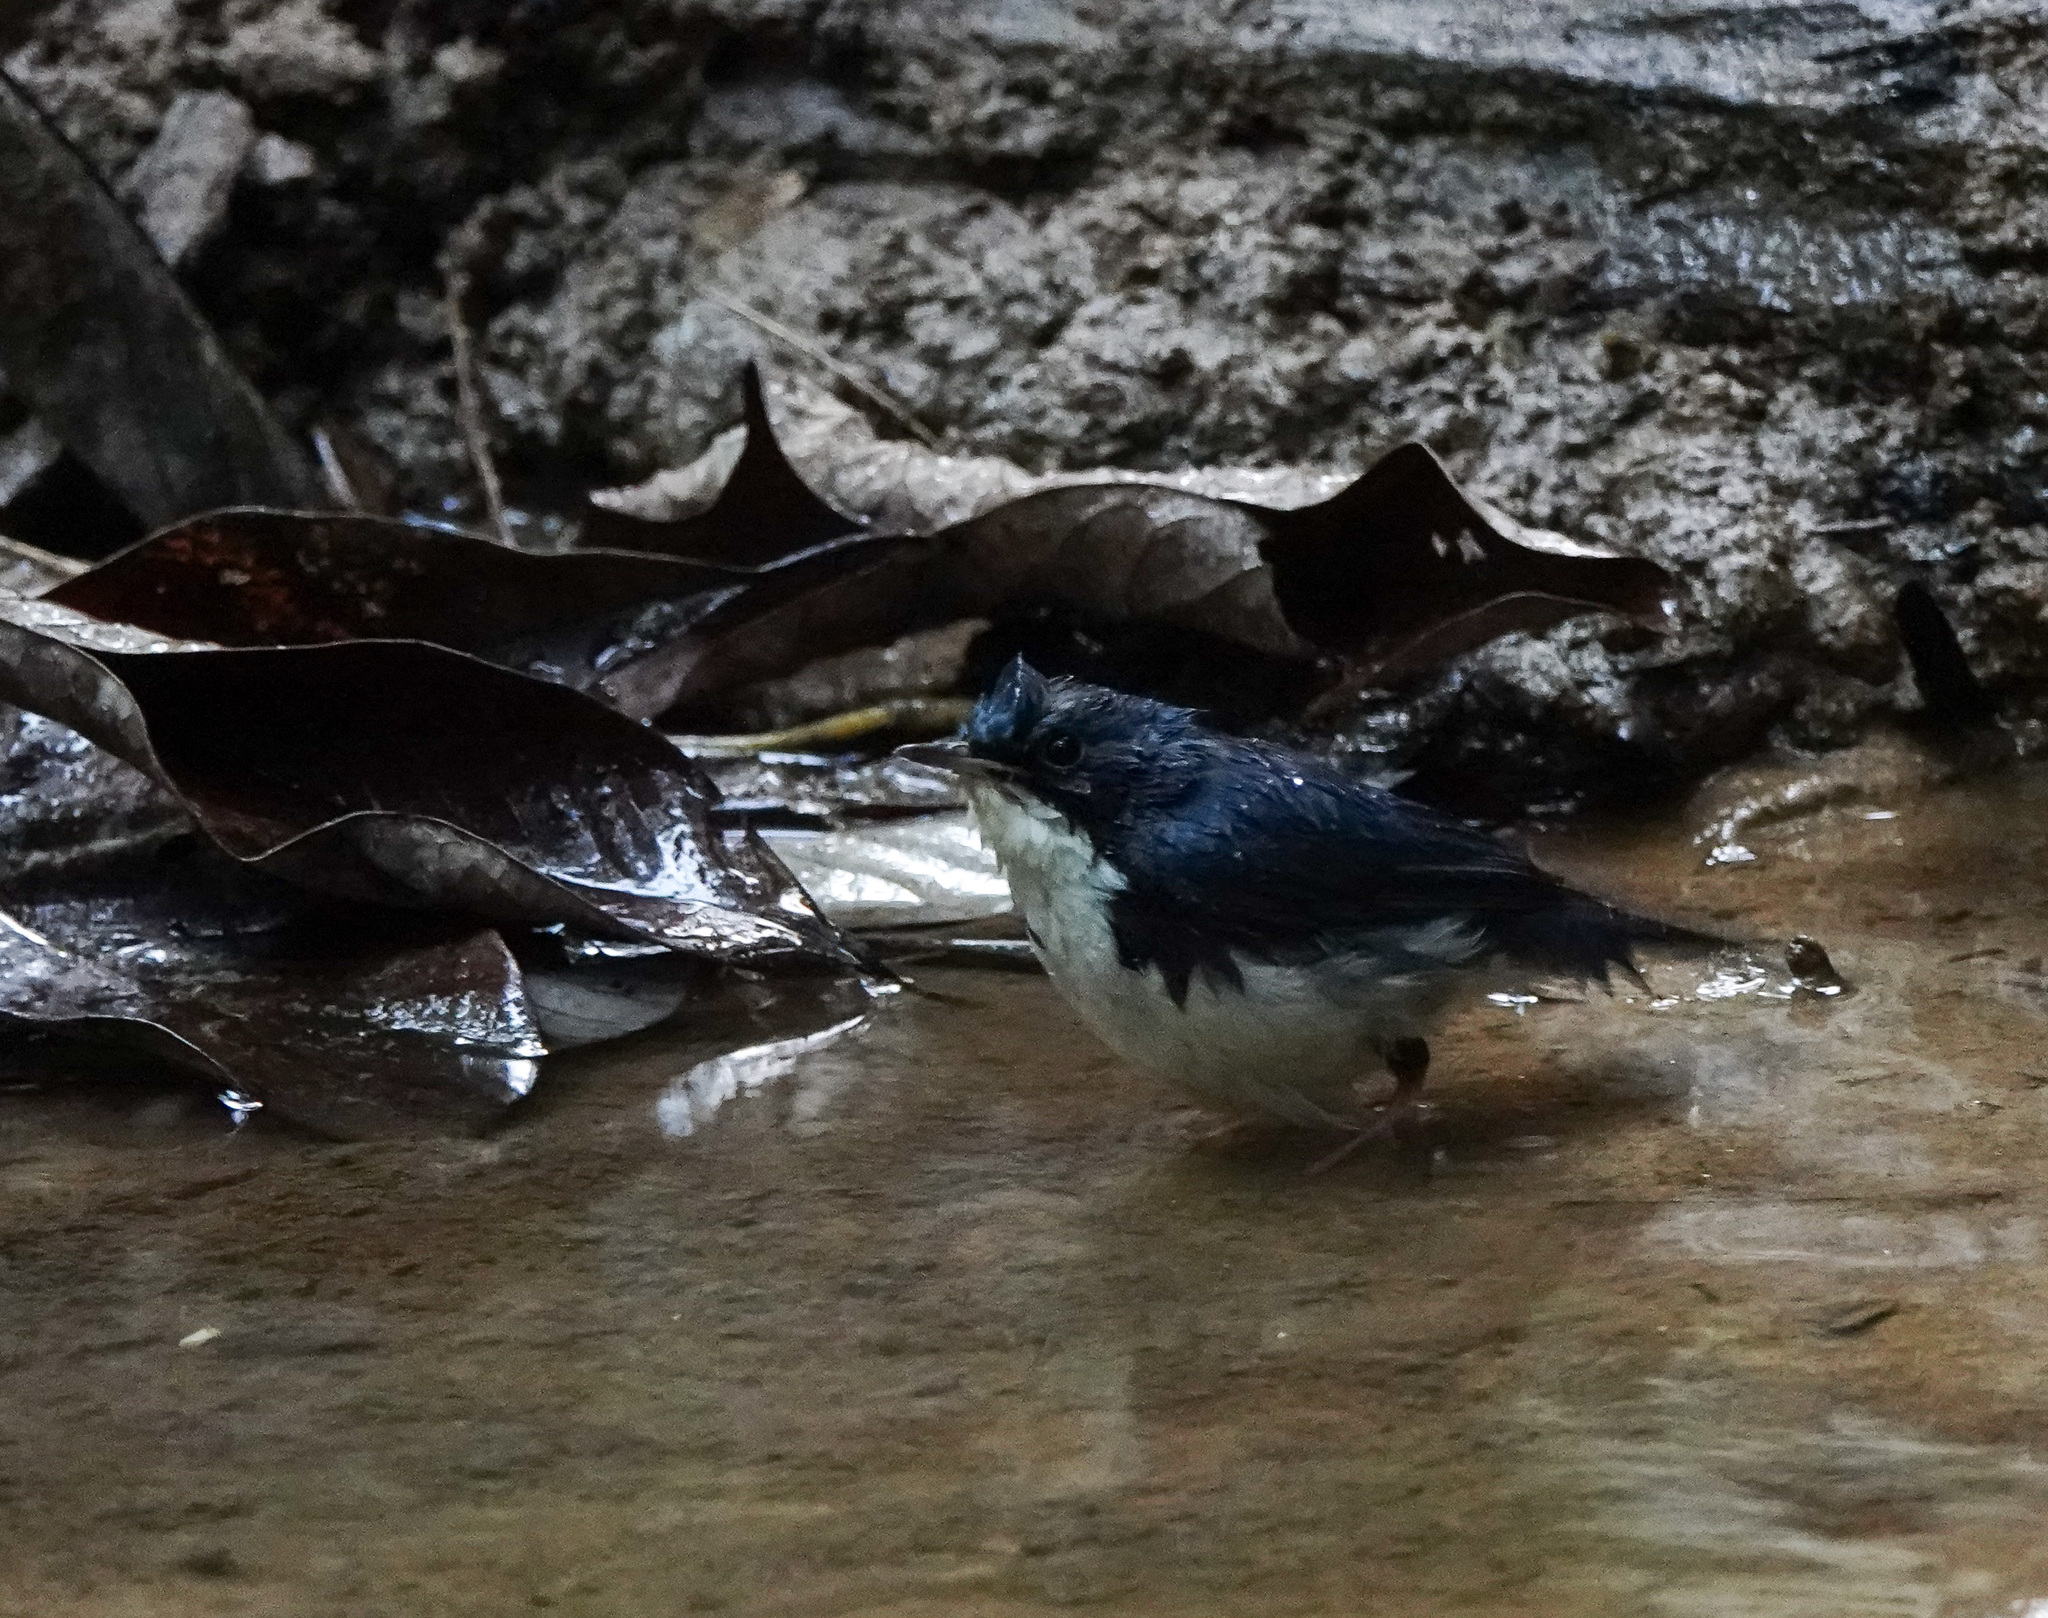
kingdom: Animalia
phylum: Chordata
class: Aves
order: Passeriformes
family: Muscicapidae
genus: Luscinia
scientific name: Luscinia cyane
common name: Siberian blue robin
